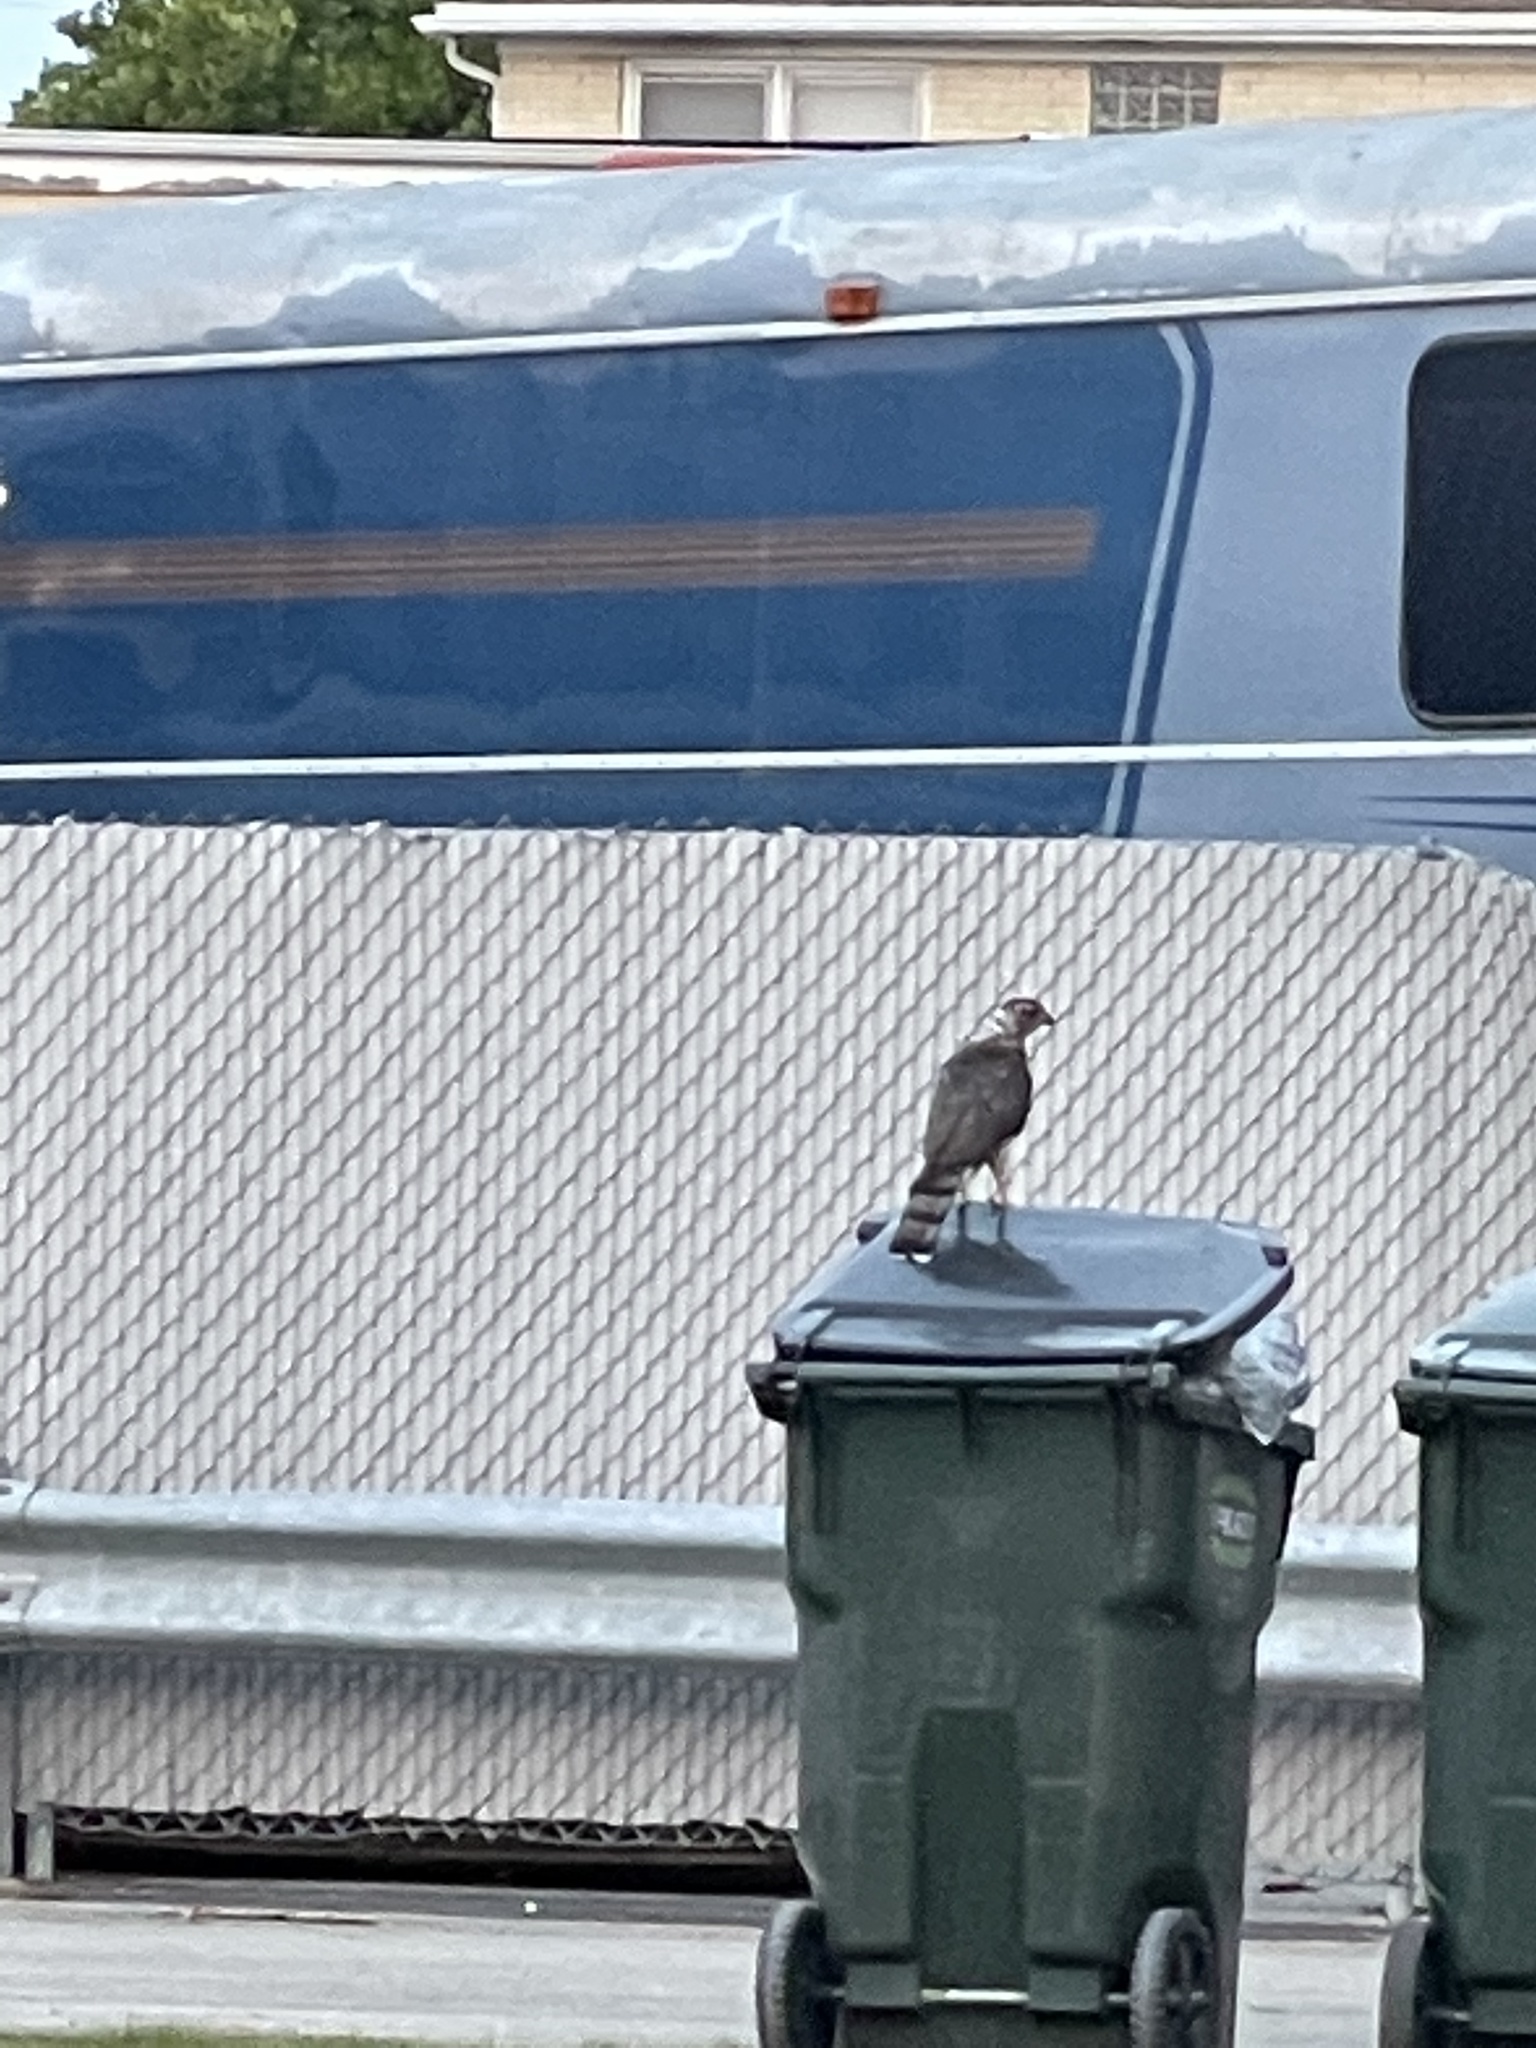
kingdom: Animalia
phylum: Chordata
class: Aves
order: Accipitriformes
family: Accipitridae
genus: Accipiter
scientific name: Accipiter cooperii
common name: Cooper's hawk
